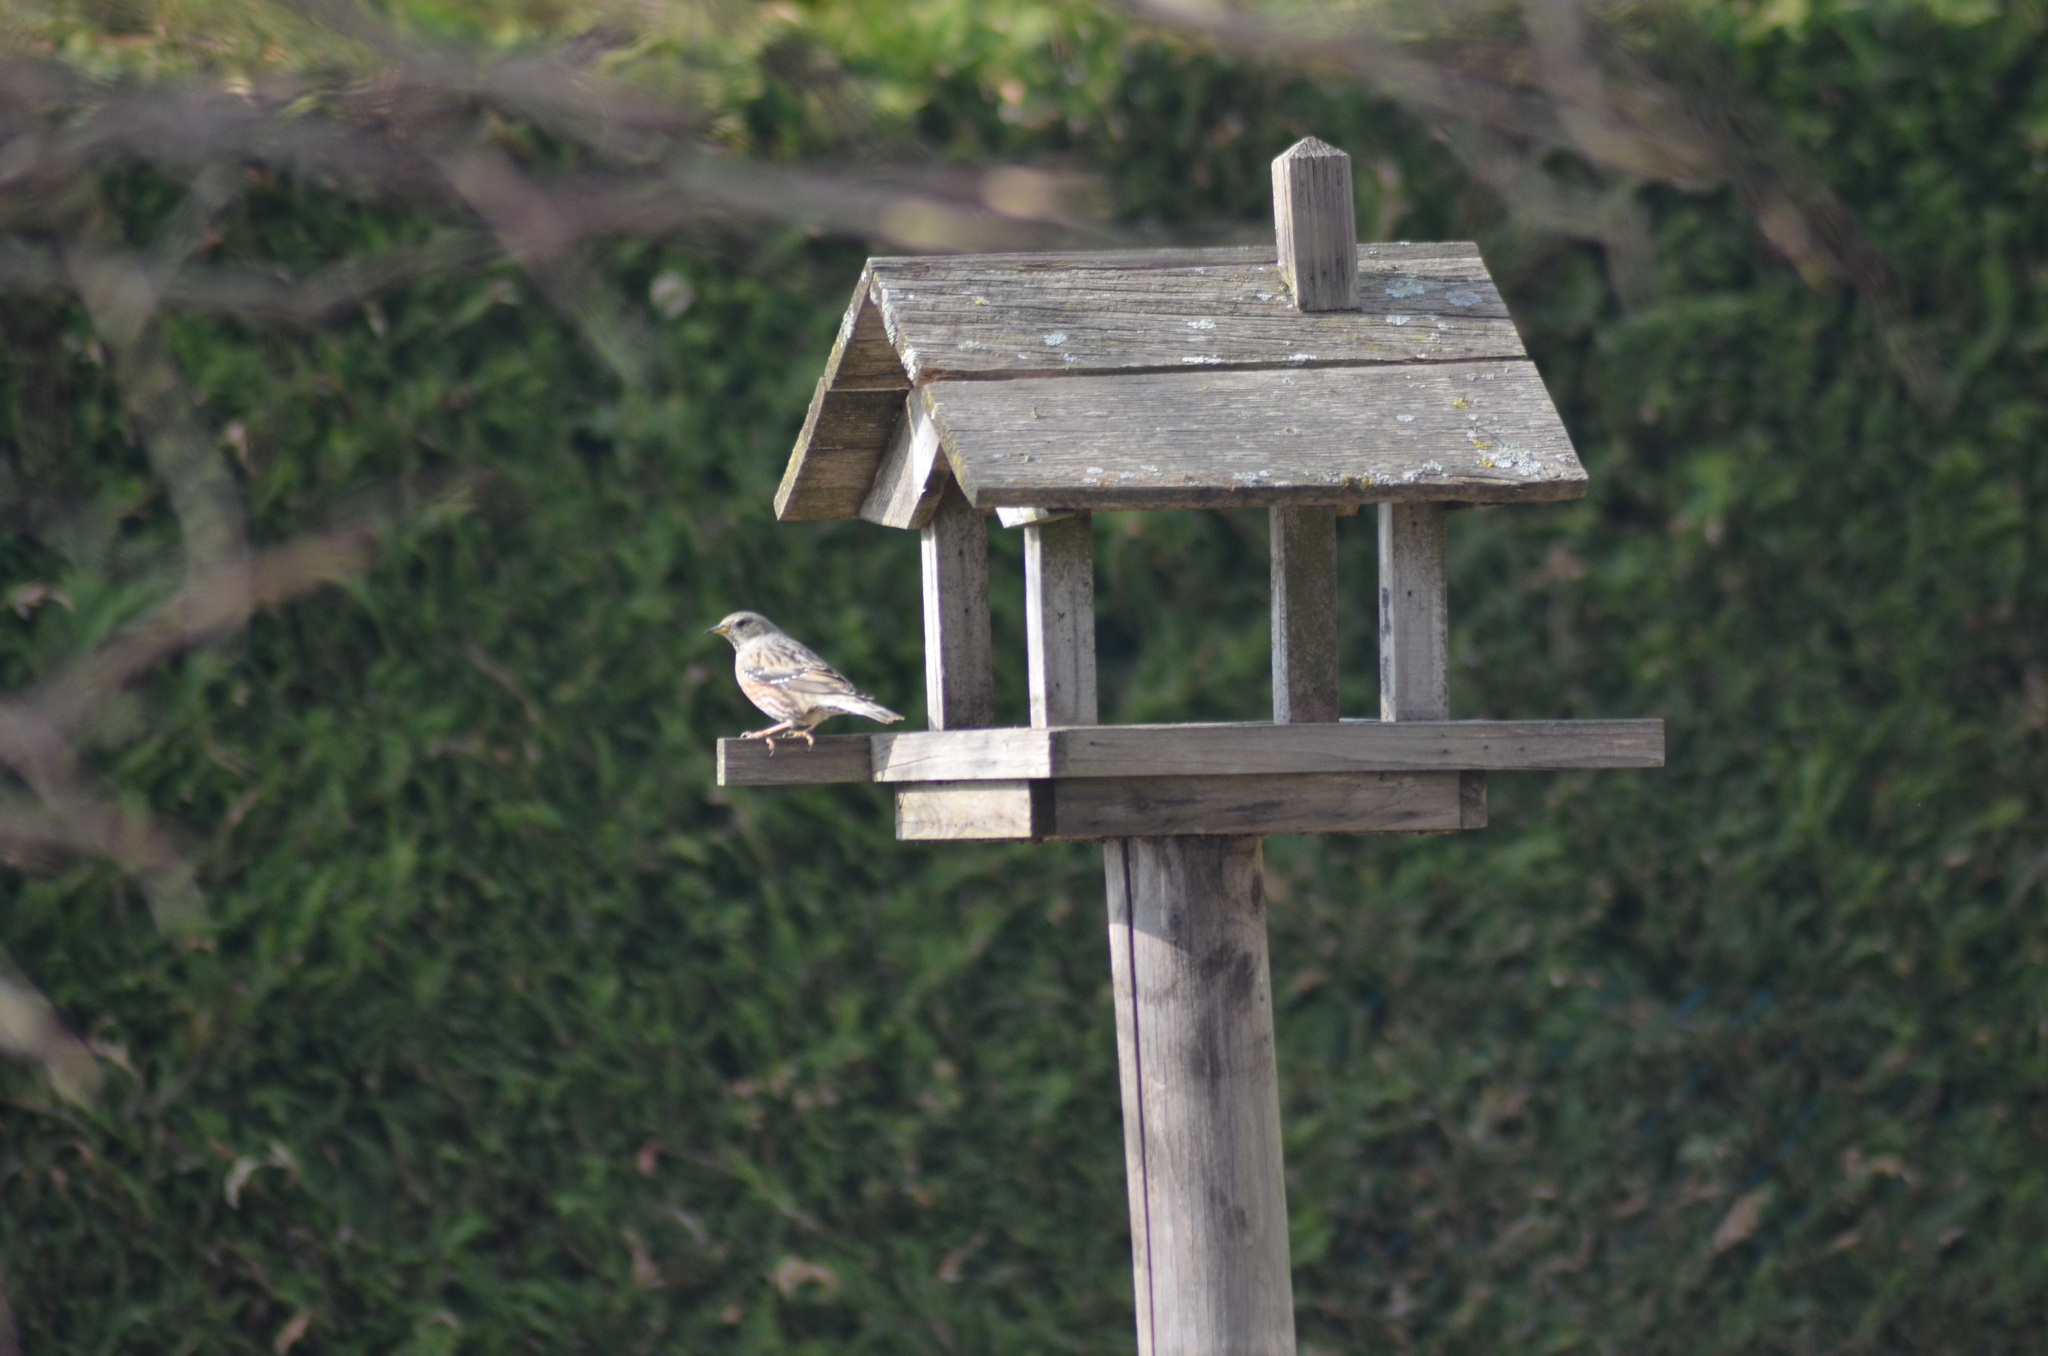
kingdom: Animalia
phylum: Chordata
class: Aves
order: Passeriformes
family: Prunellidae
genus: Prunella
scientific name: Prunella collaris
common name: Alpine accentor
